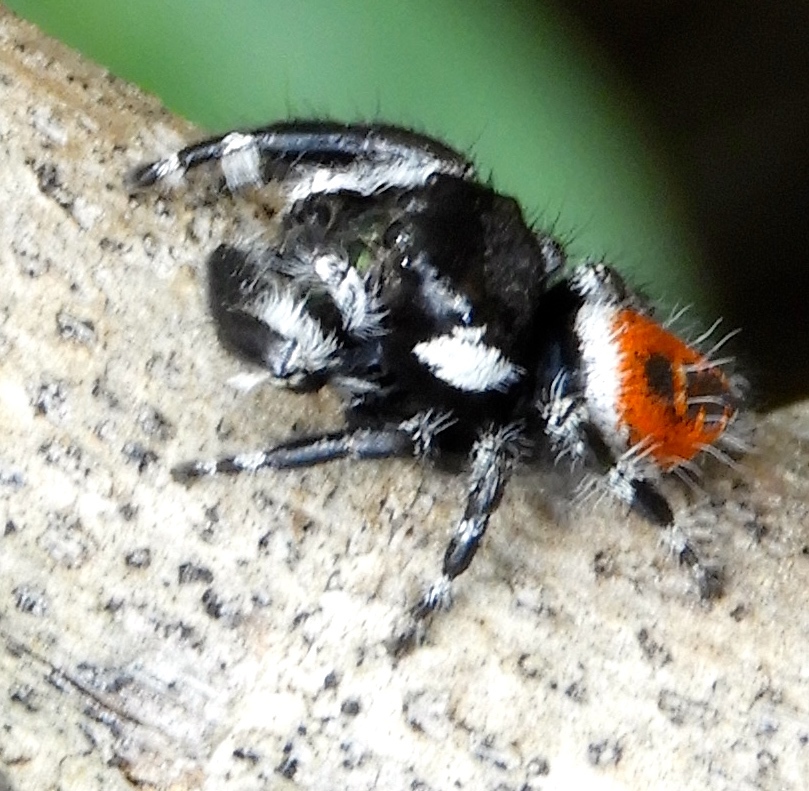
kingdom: Animalia
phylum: Arthropoda
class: Arachnida
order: Araneae
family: Salticidae
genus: Phidippus
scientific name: Phidippus californicus
